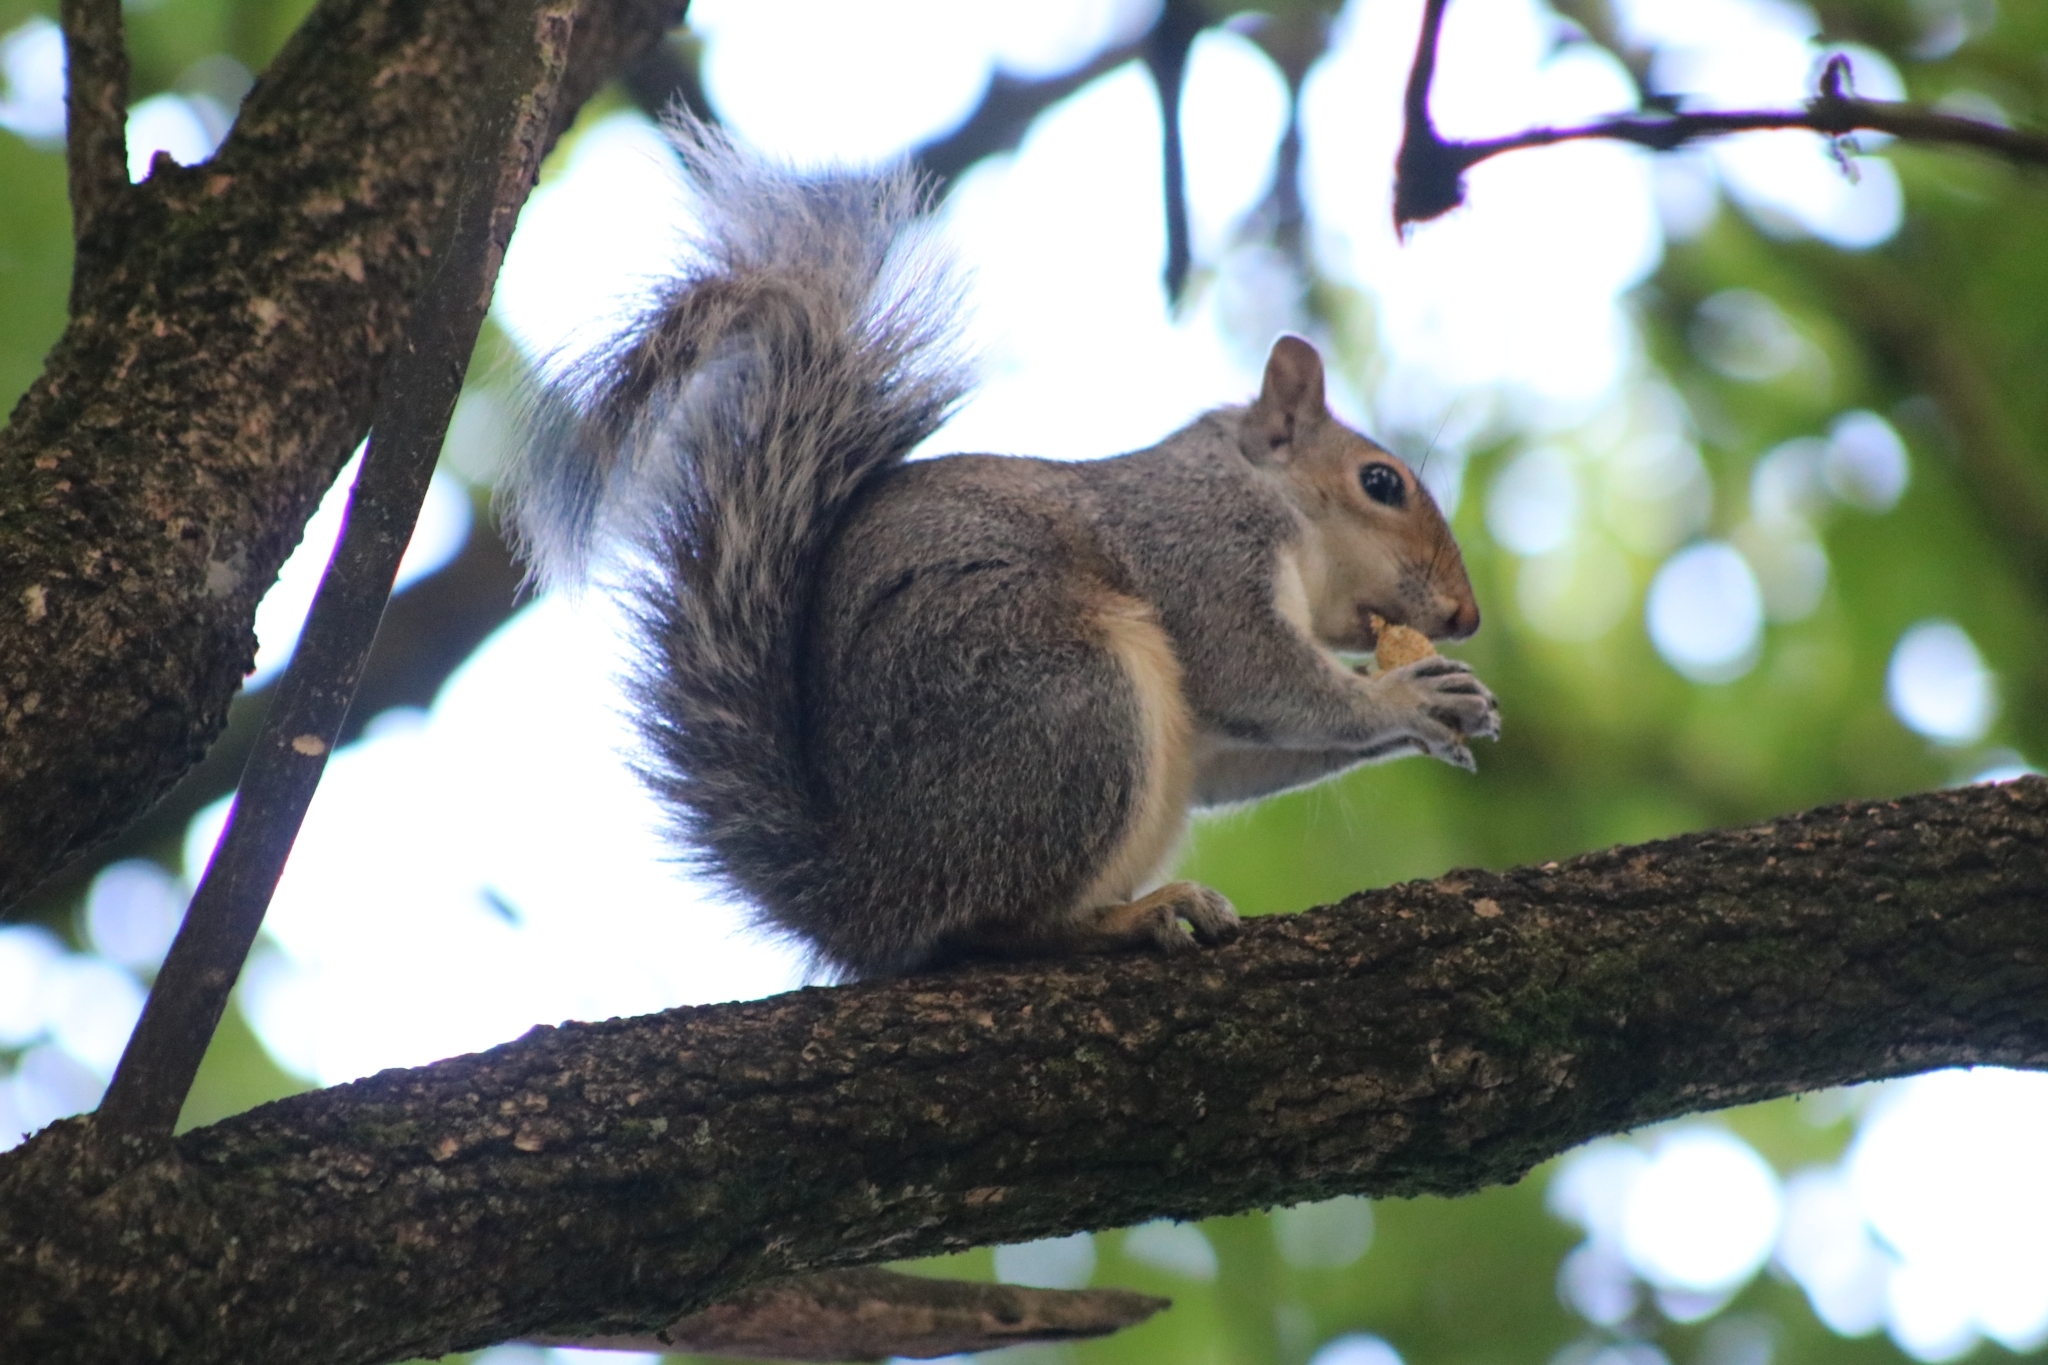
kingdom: Animalia
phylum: Chordata
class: Mammalia
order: Rodentia
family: Sciuridae
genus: Sciurus
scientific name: Sciurus carolinensis
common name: Eastern gray squirrel
